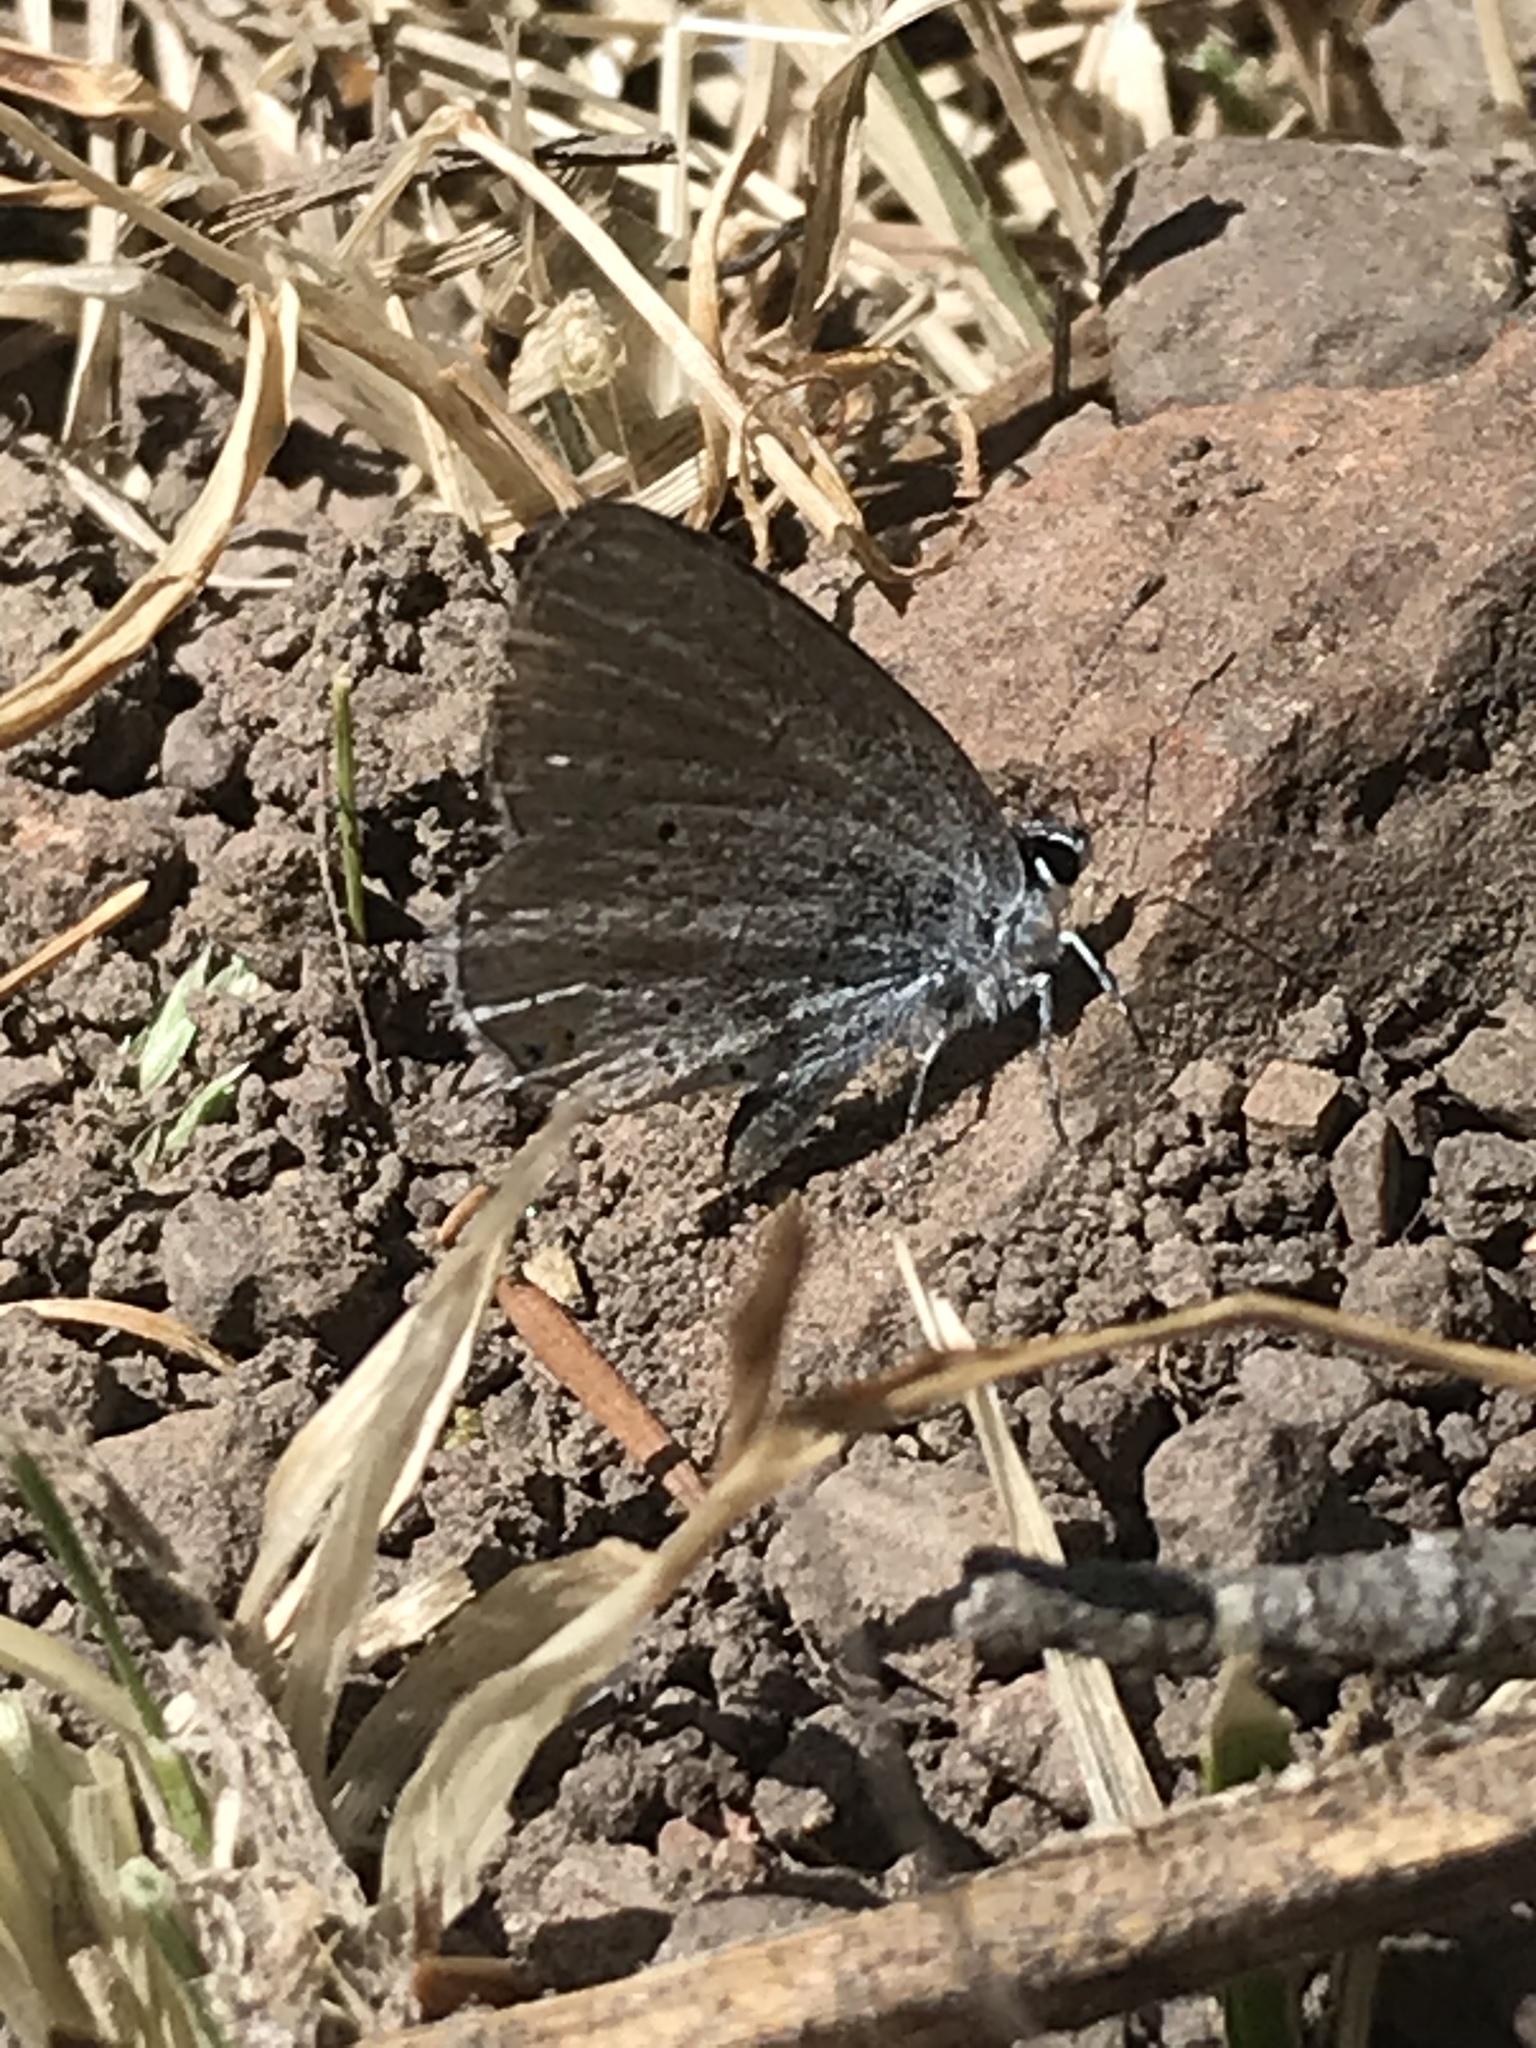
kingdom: Animalia
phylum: Arthropoda
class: Insecta
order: Lepidoptera
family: Lycaenidae
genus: Elkalyce
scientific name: Elkalyce amyntula
